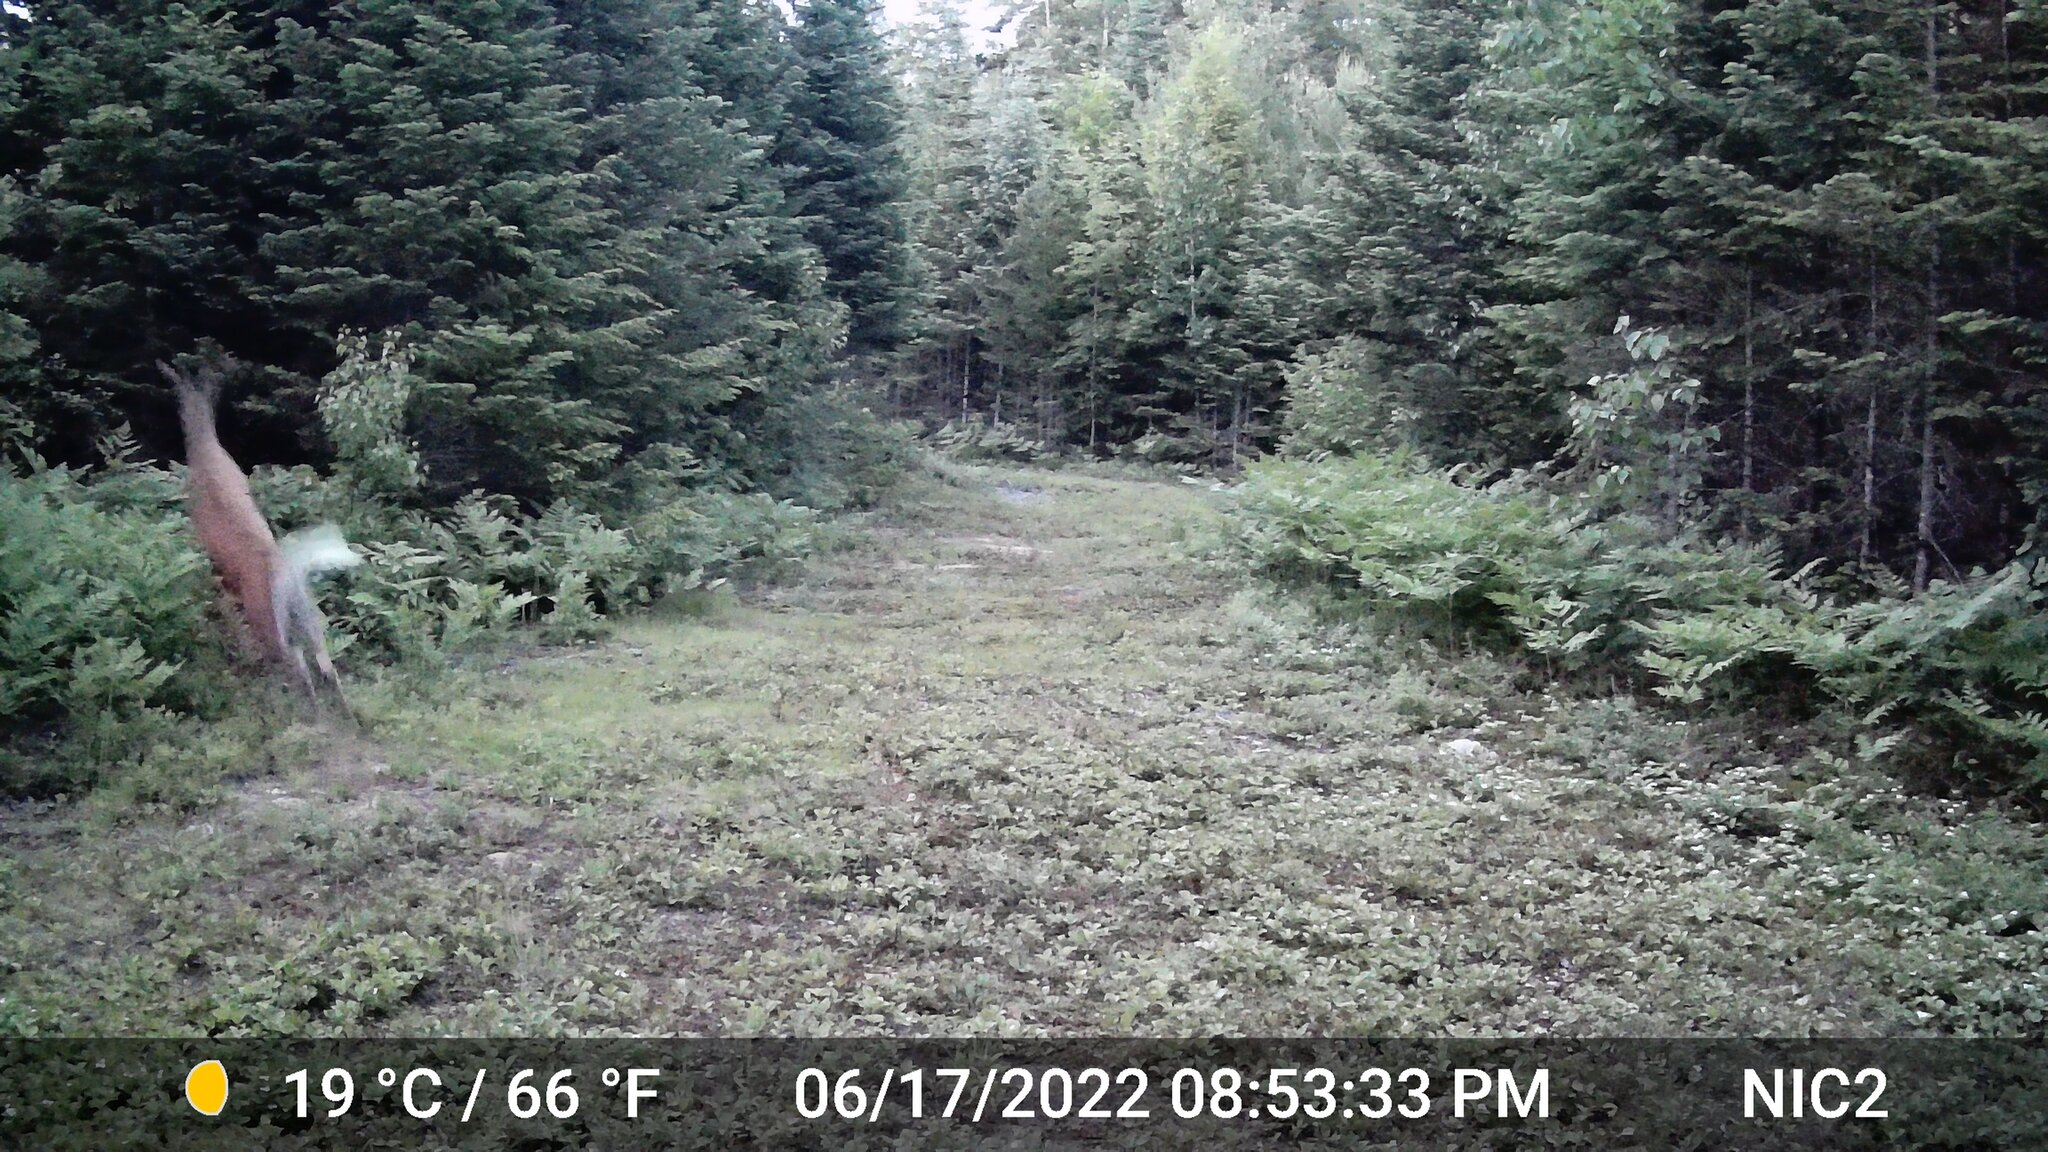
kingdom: Animalia
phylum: Chordata
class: Mammalia
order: Artiodactyla
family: Cervidae
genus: Odocoileus
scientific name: Odocoileus virginianus
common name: White-tailed deer
